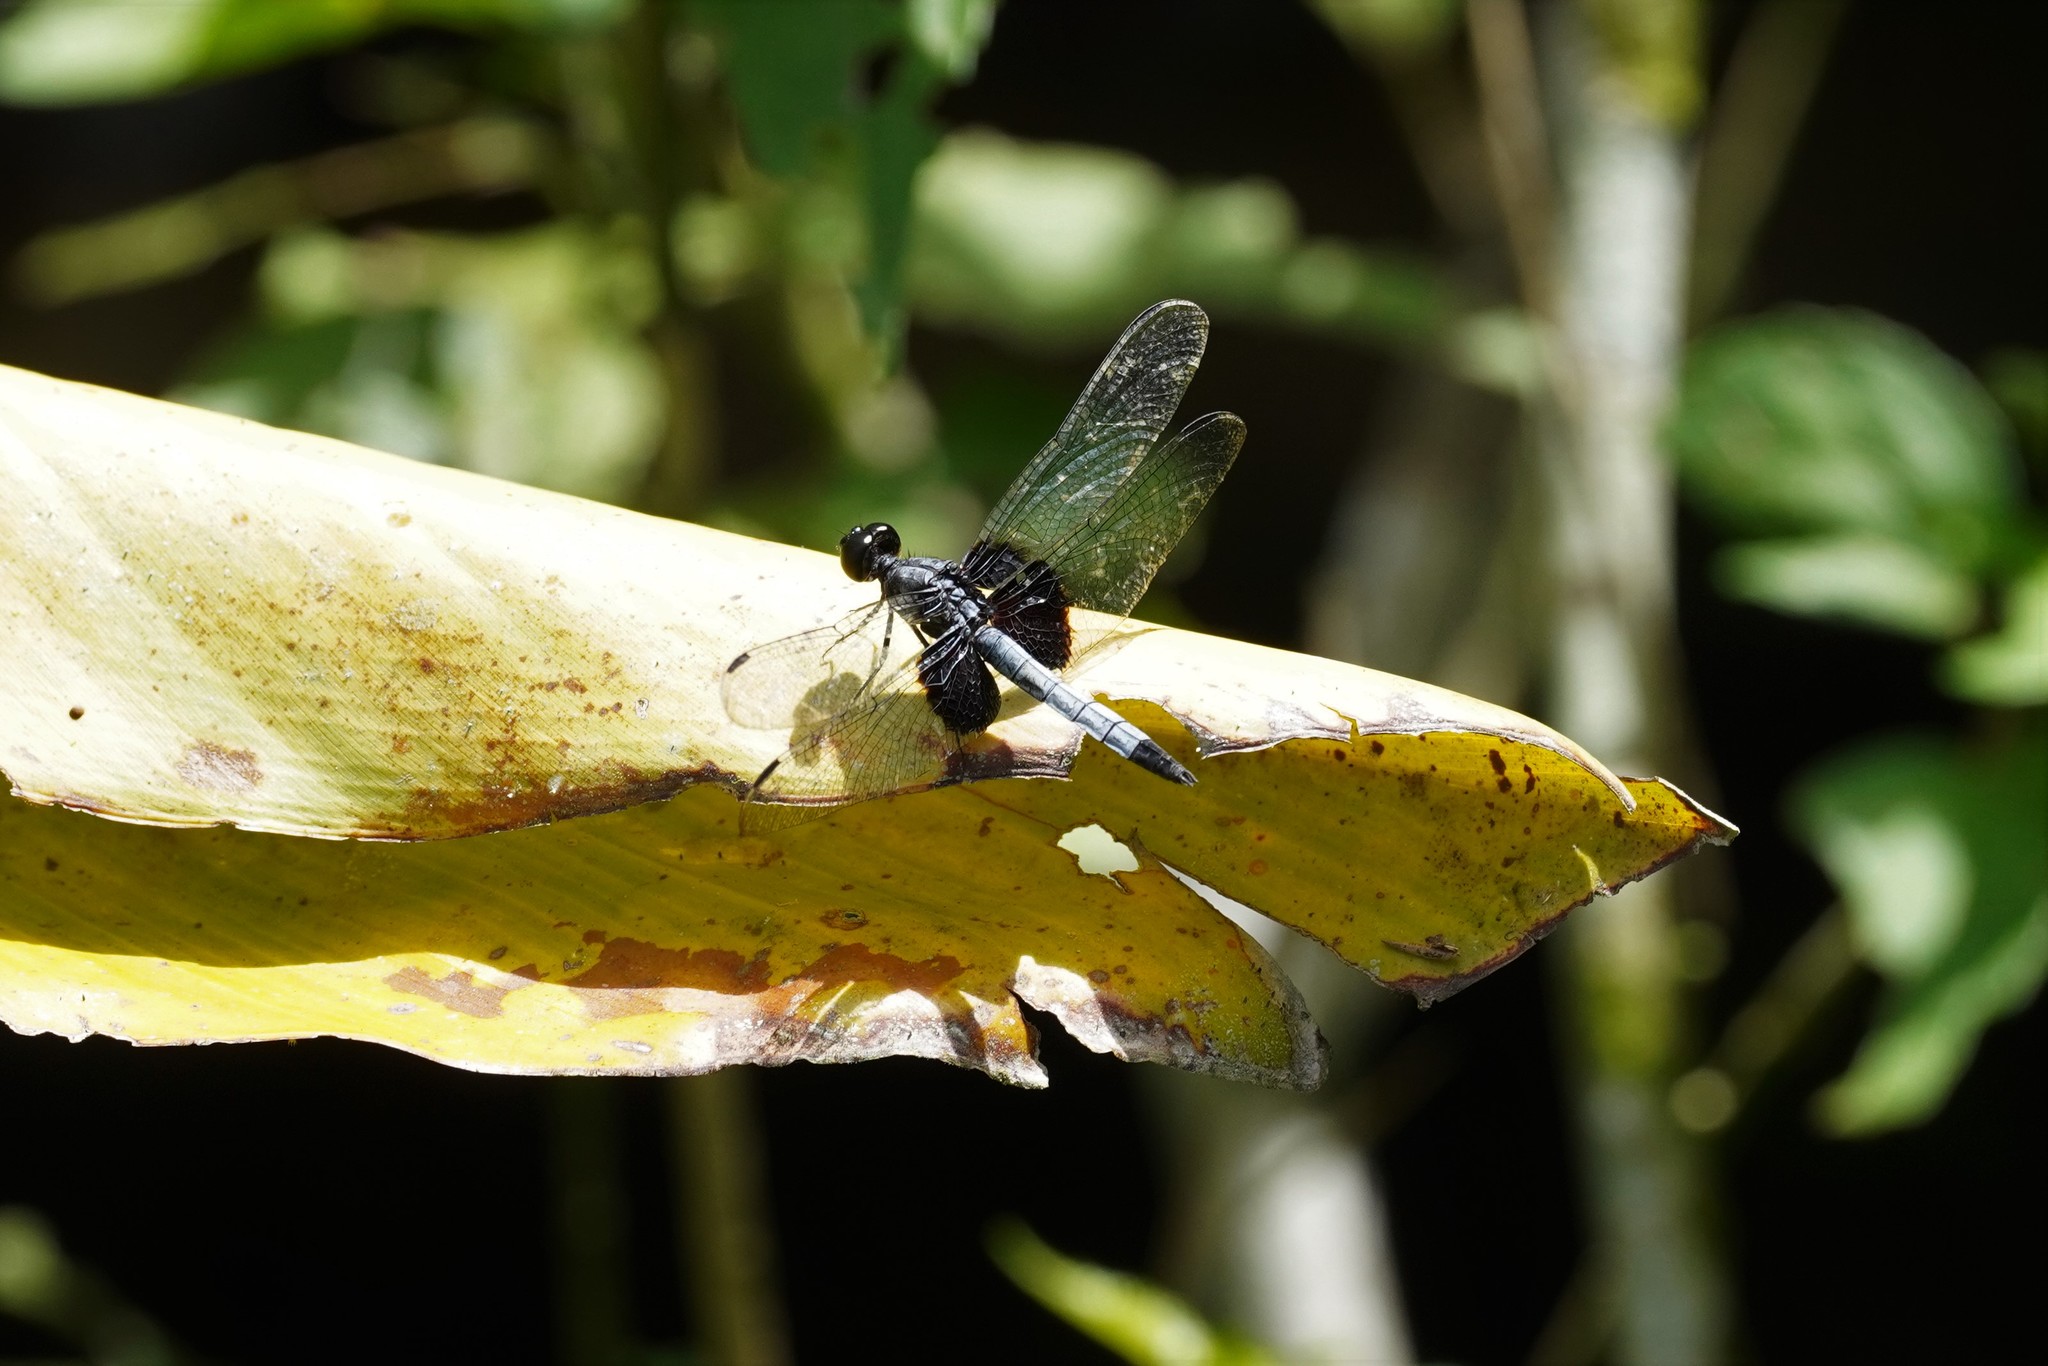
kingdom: Animalia
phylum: Arthropoda
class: Insecta
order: Odonata
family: Libellulidae
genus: Erythrodiplax
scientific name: Erythrodiplax unimaculata
